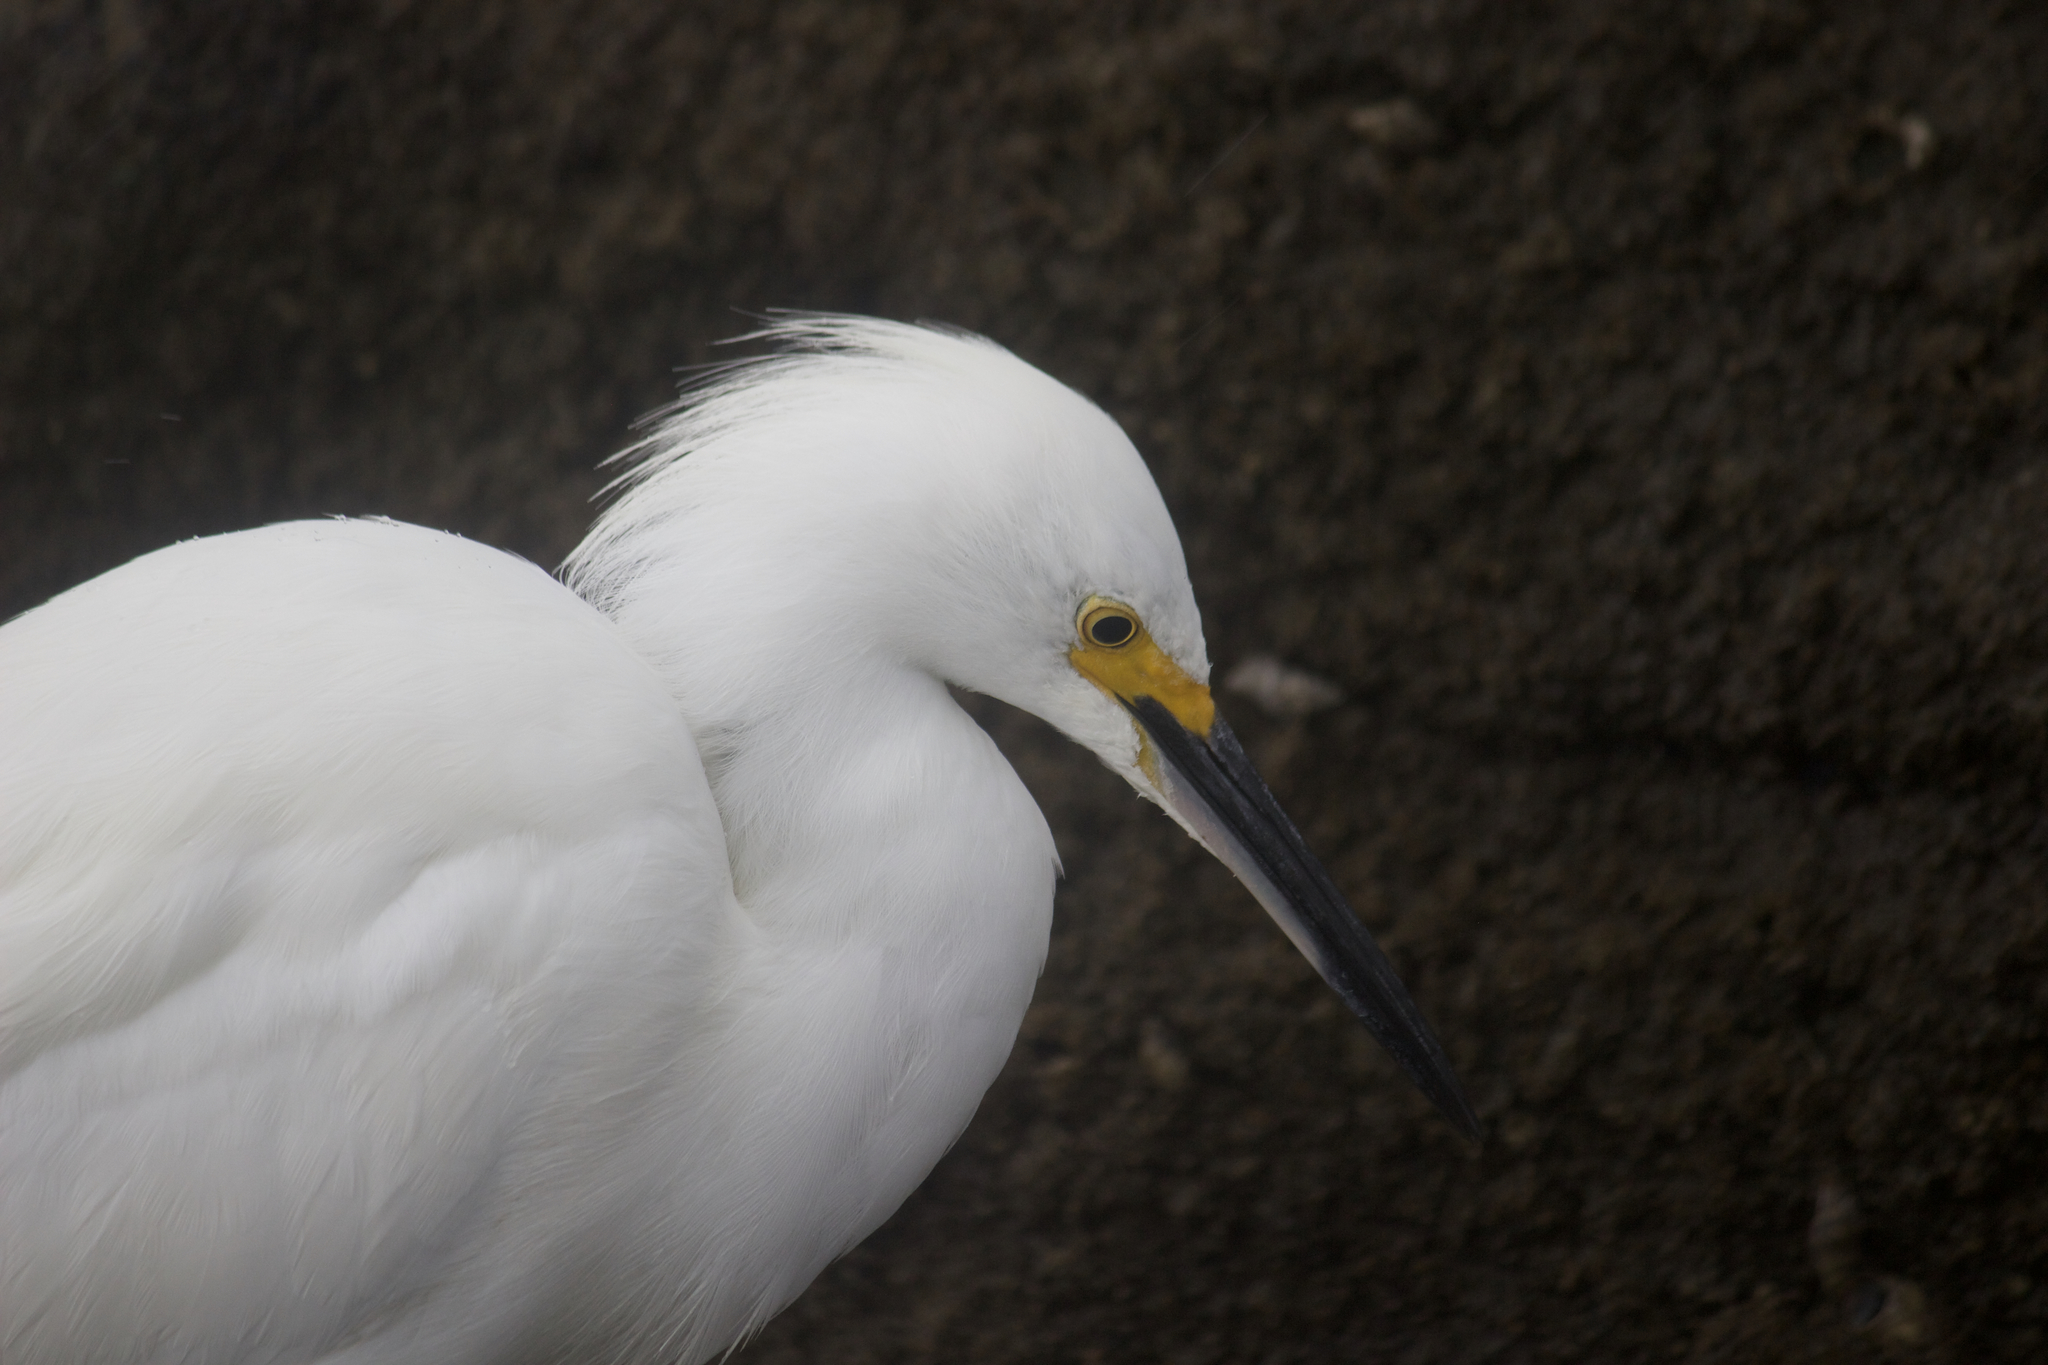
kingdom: Animalia
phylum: Chordata
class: Aves
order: Pelecaniformes
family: Ardeidae
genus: Egretta
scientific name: Egretta thula
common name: Snowy egret
